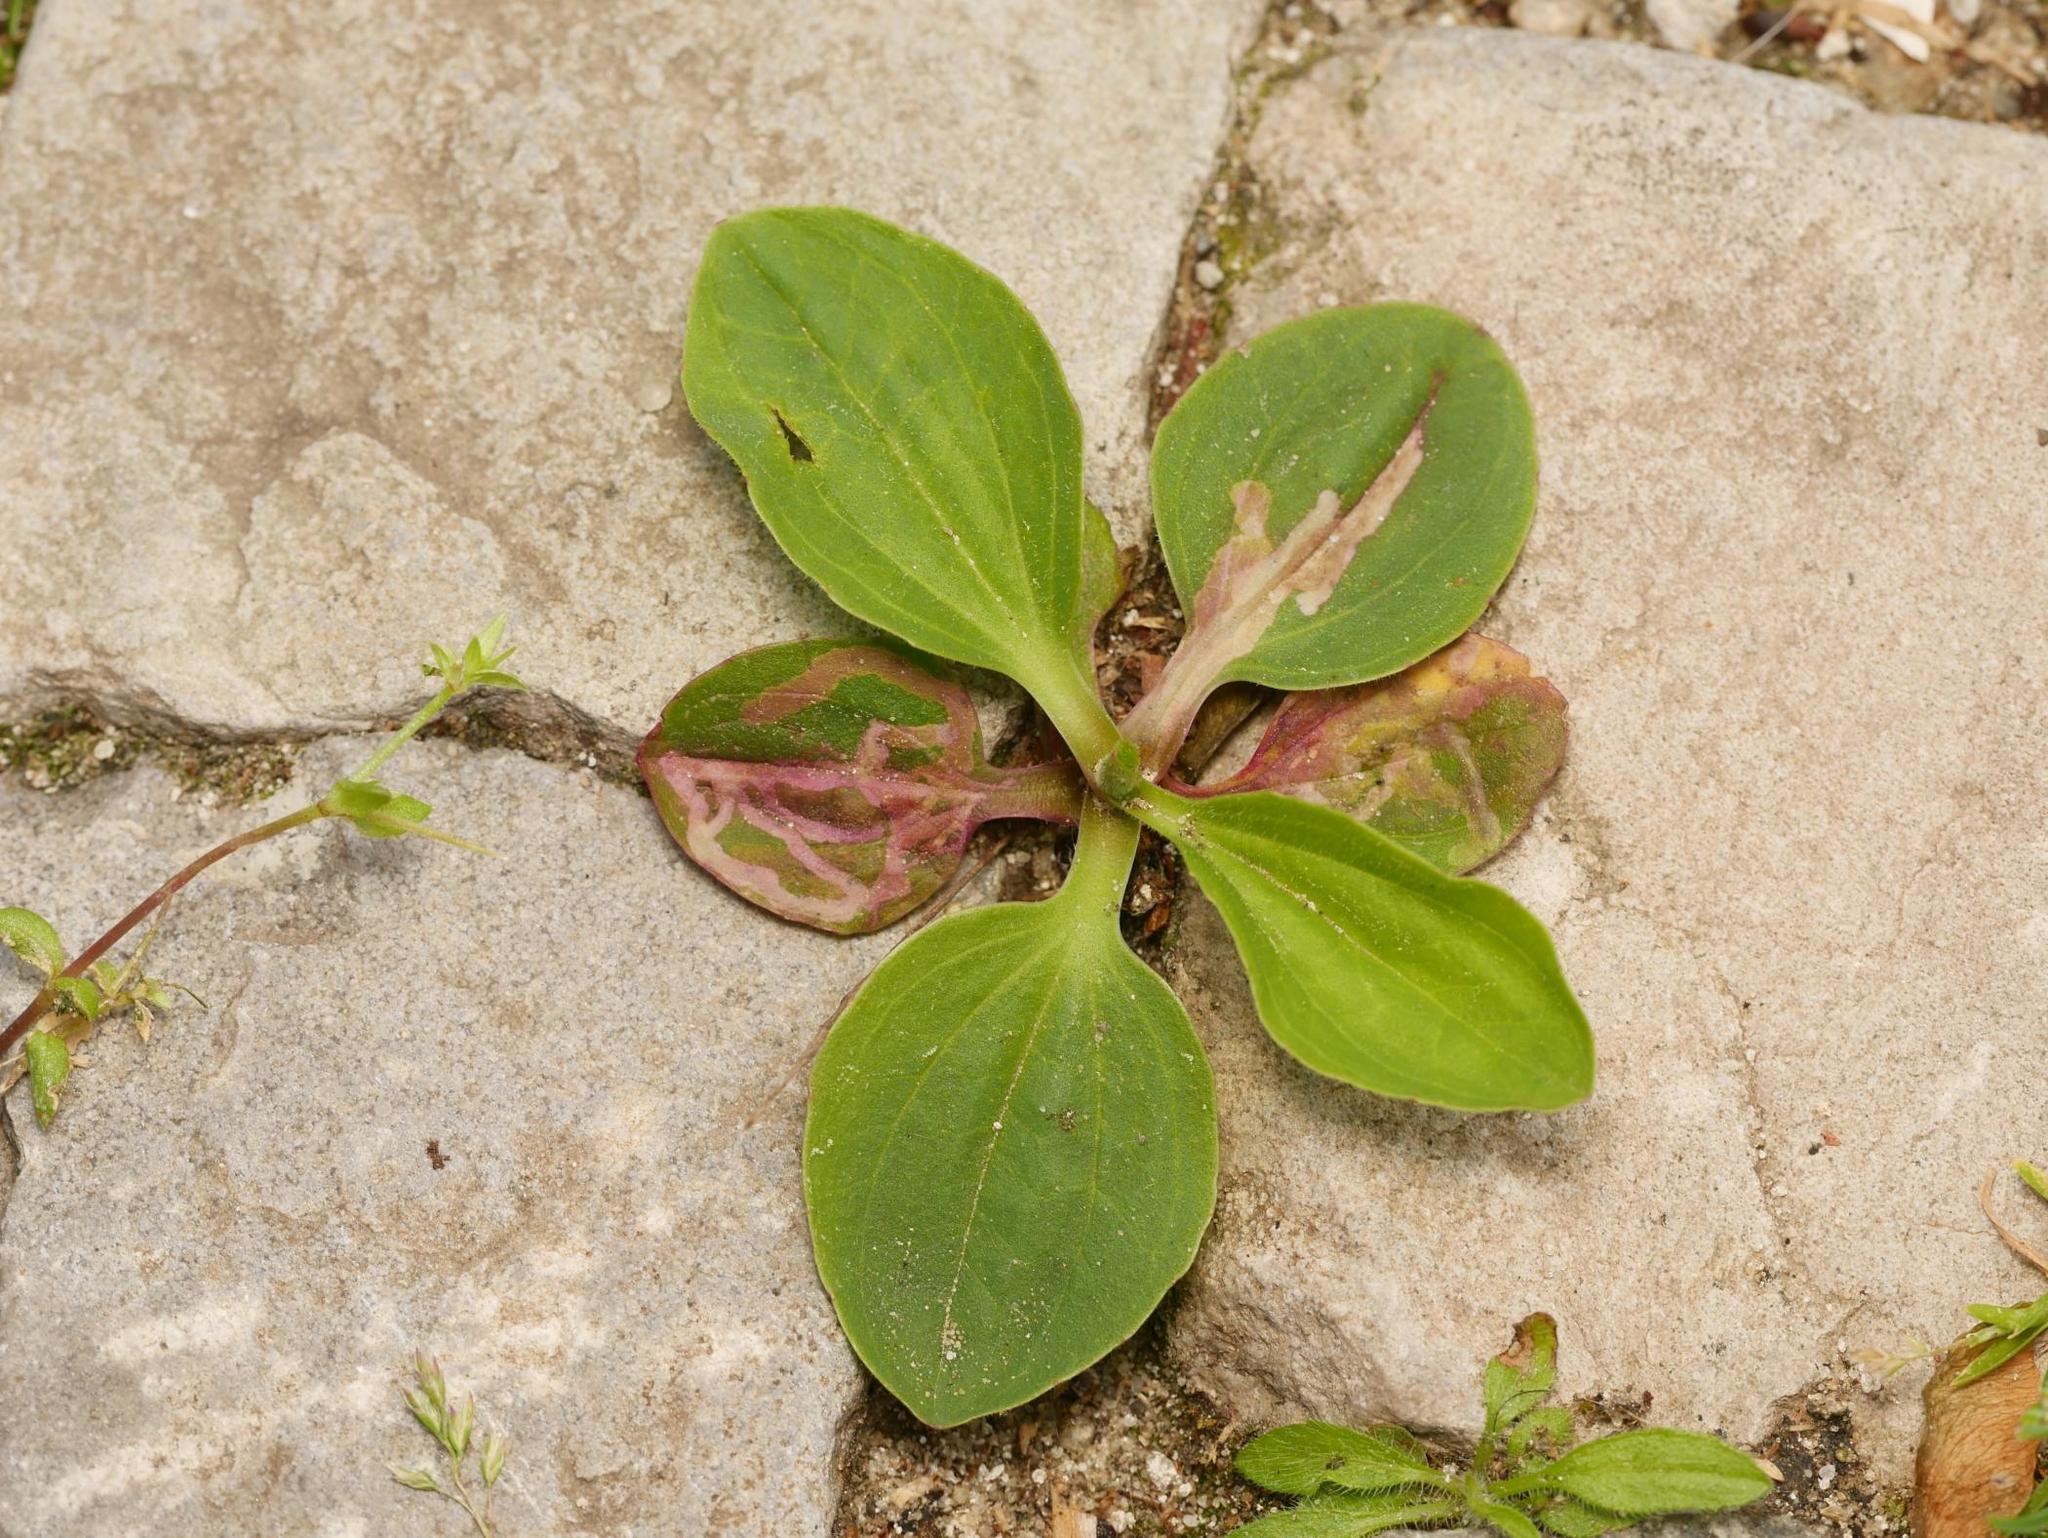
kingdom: Plantae
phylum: Tracheophyta
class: Magnoliopsida
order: Lamiales
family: Plantaginaceae
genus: Plantago
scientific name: Plantago major
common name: Common plantain
